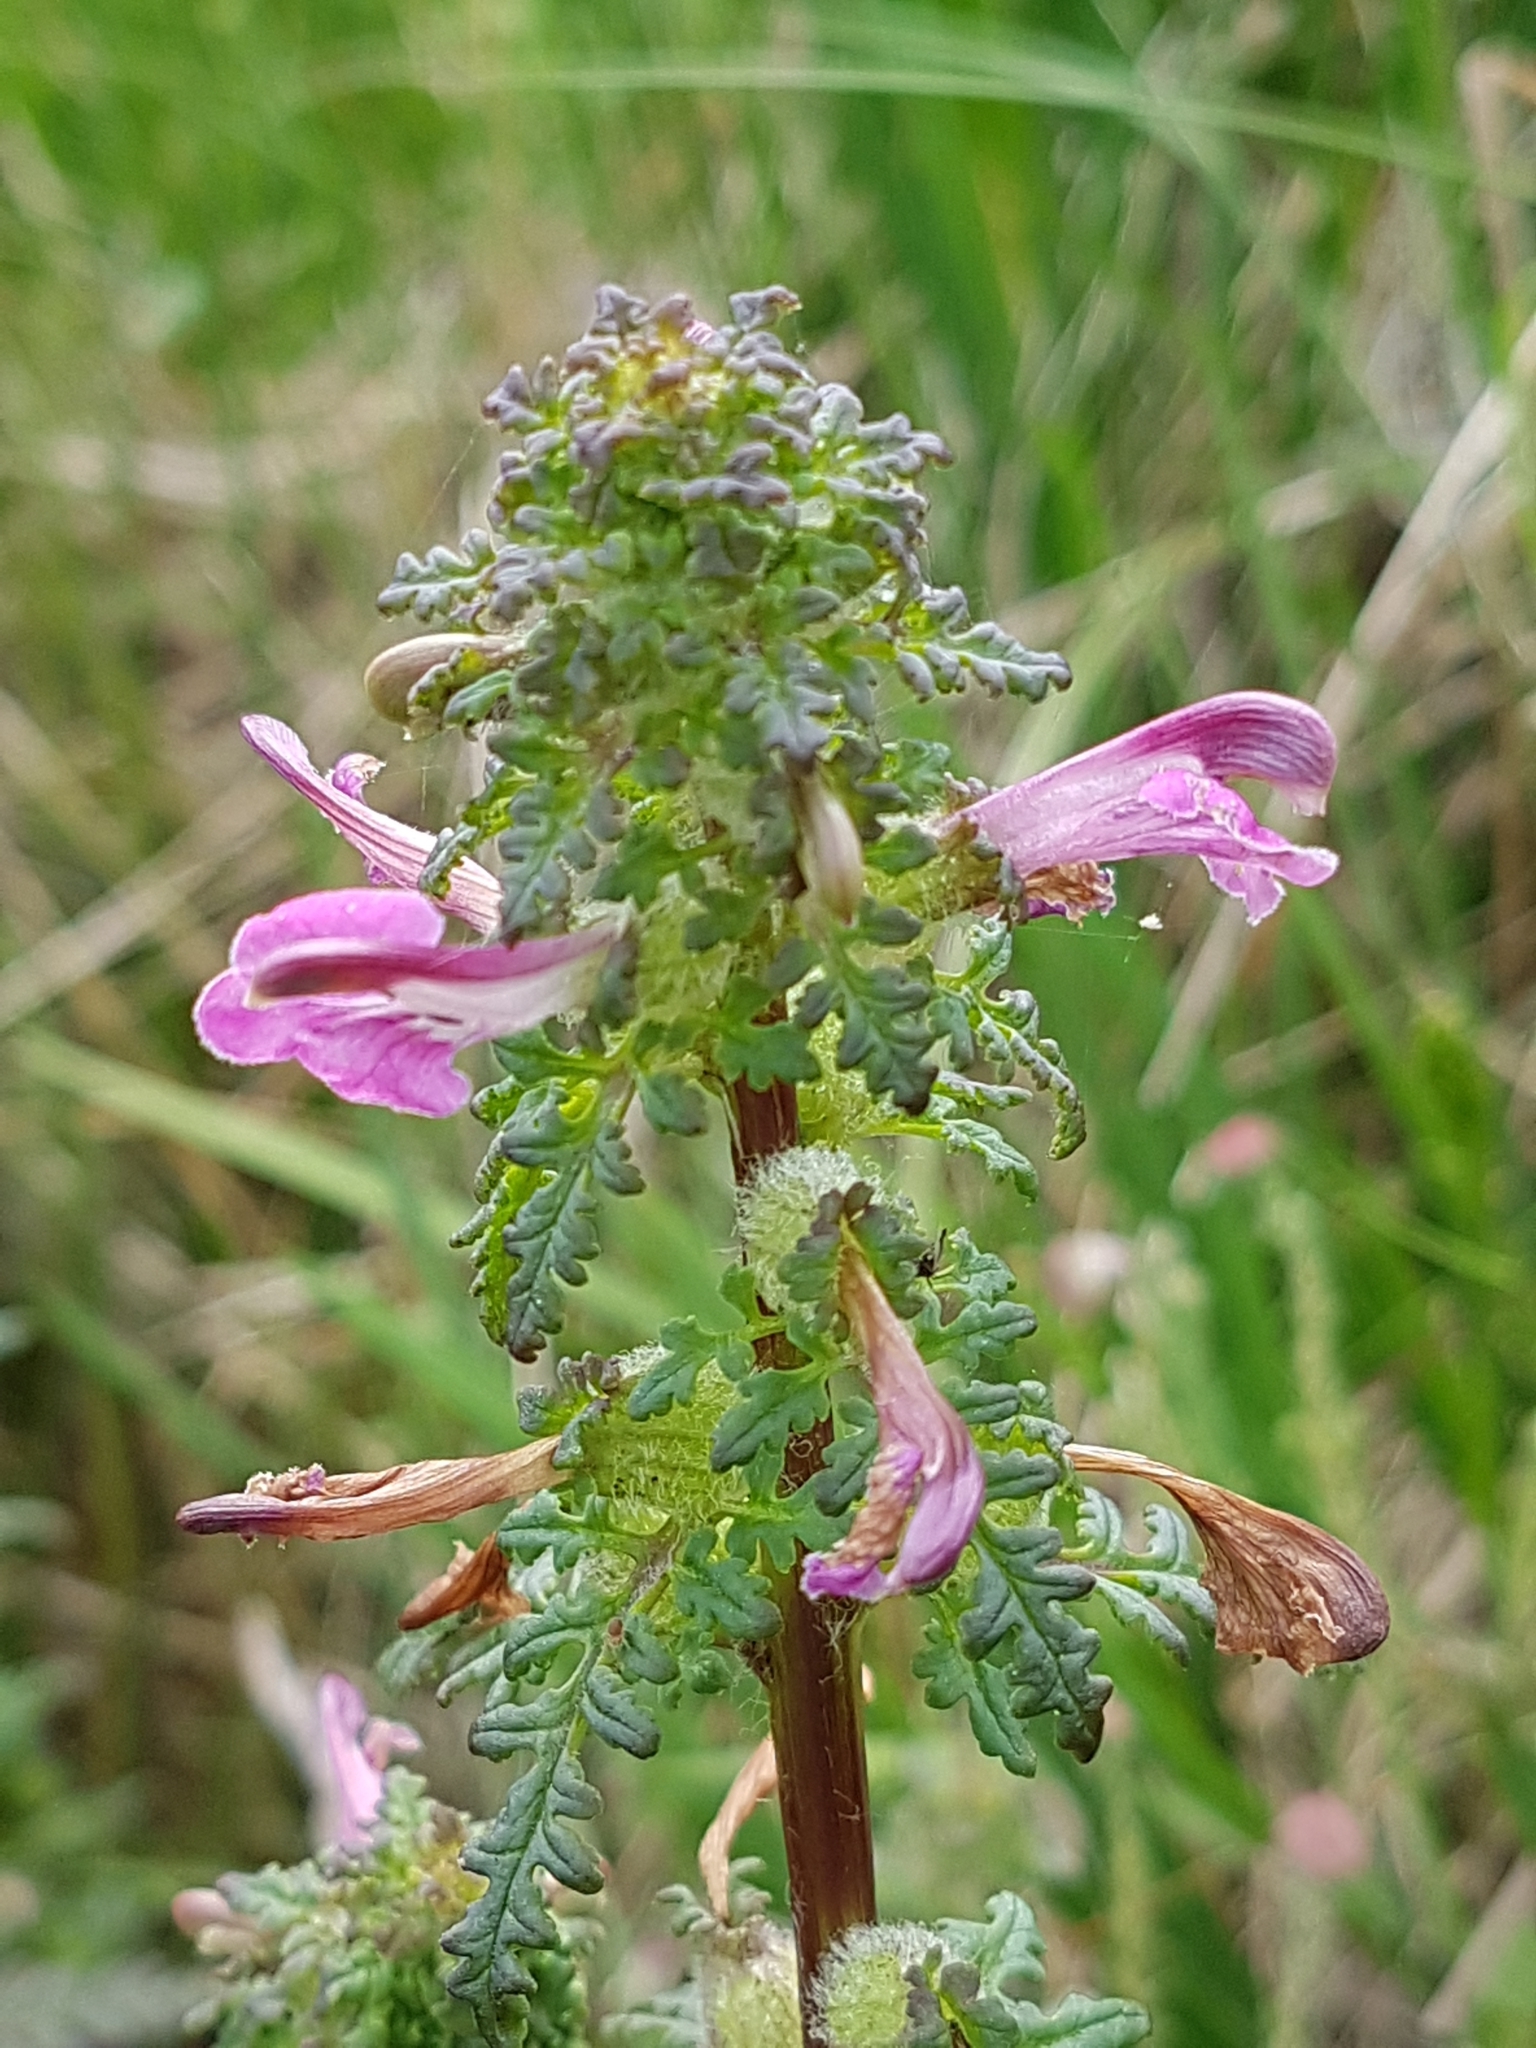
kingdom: Plantae
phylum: Tracheophyta
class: Magnoliopsida
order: Lamiales
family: Orobanchaceae
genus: Pedicularis
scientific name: Pedicularis palustris
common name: Marsh lousewort
